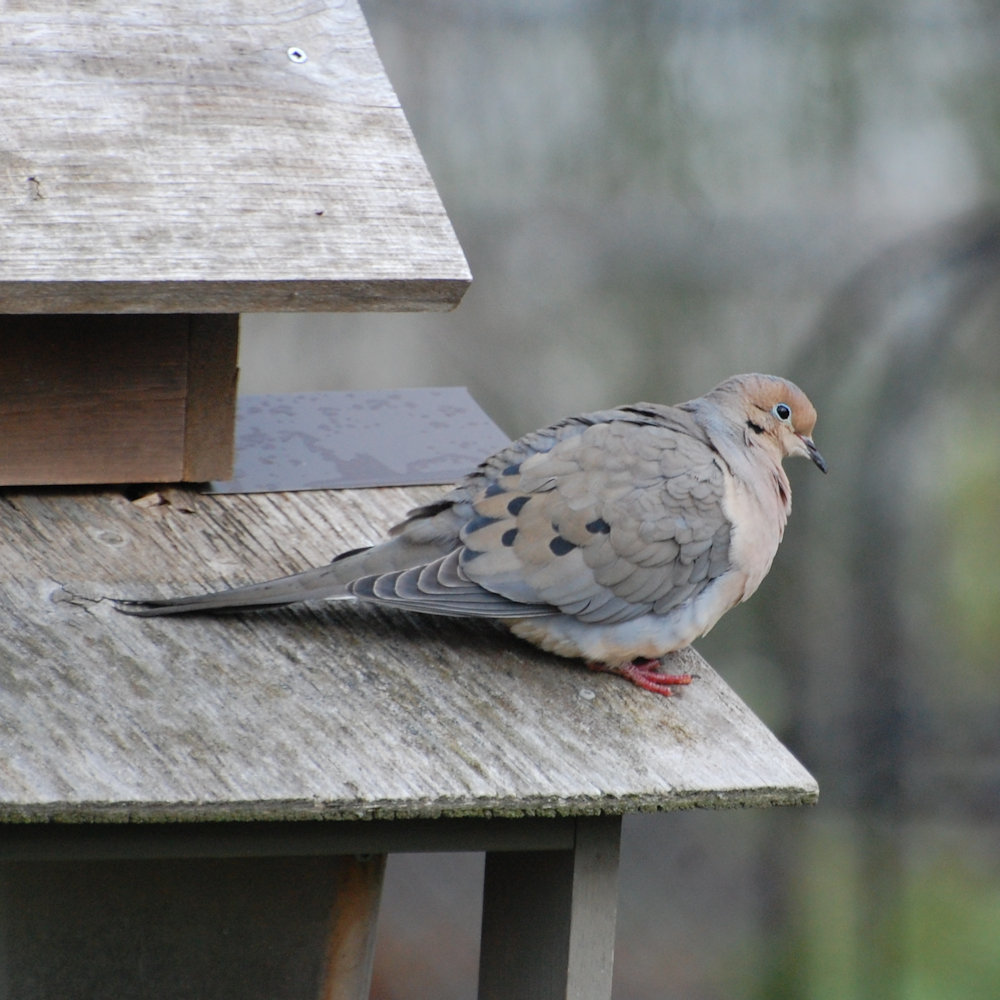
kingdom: Animalia
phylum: Chordata
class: Aves
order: Columbiformes
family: Columbidae
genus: Zenaida
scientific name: Zenaida macroura
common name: Mourning dove
